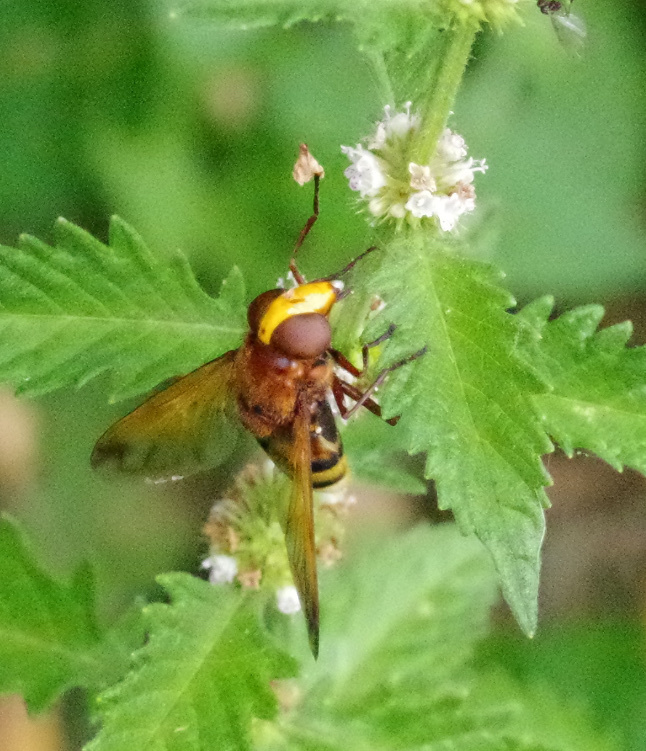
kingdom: Animalia
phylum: Arthropoda
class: Insecta
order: Diptera
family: Syrphidae
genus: Volucella
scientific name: Volucella zonaria
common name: Hornet hoverfly
